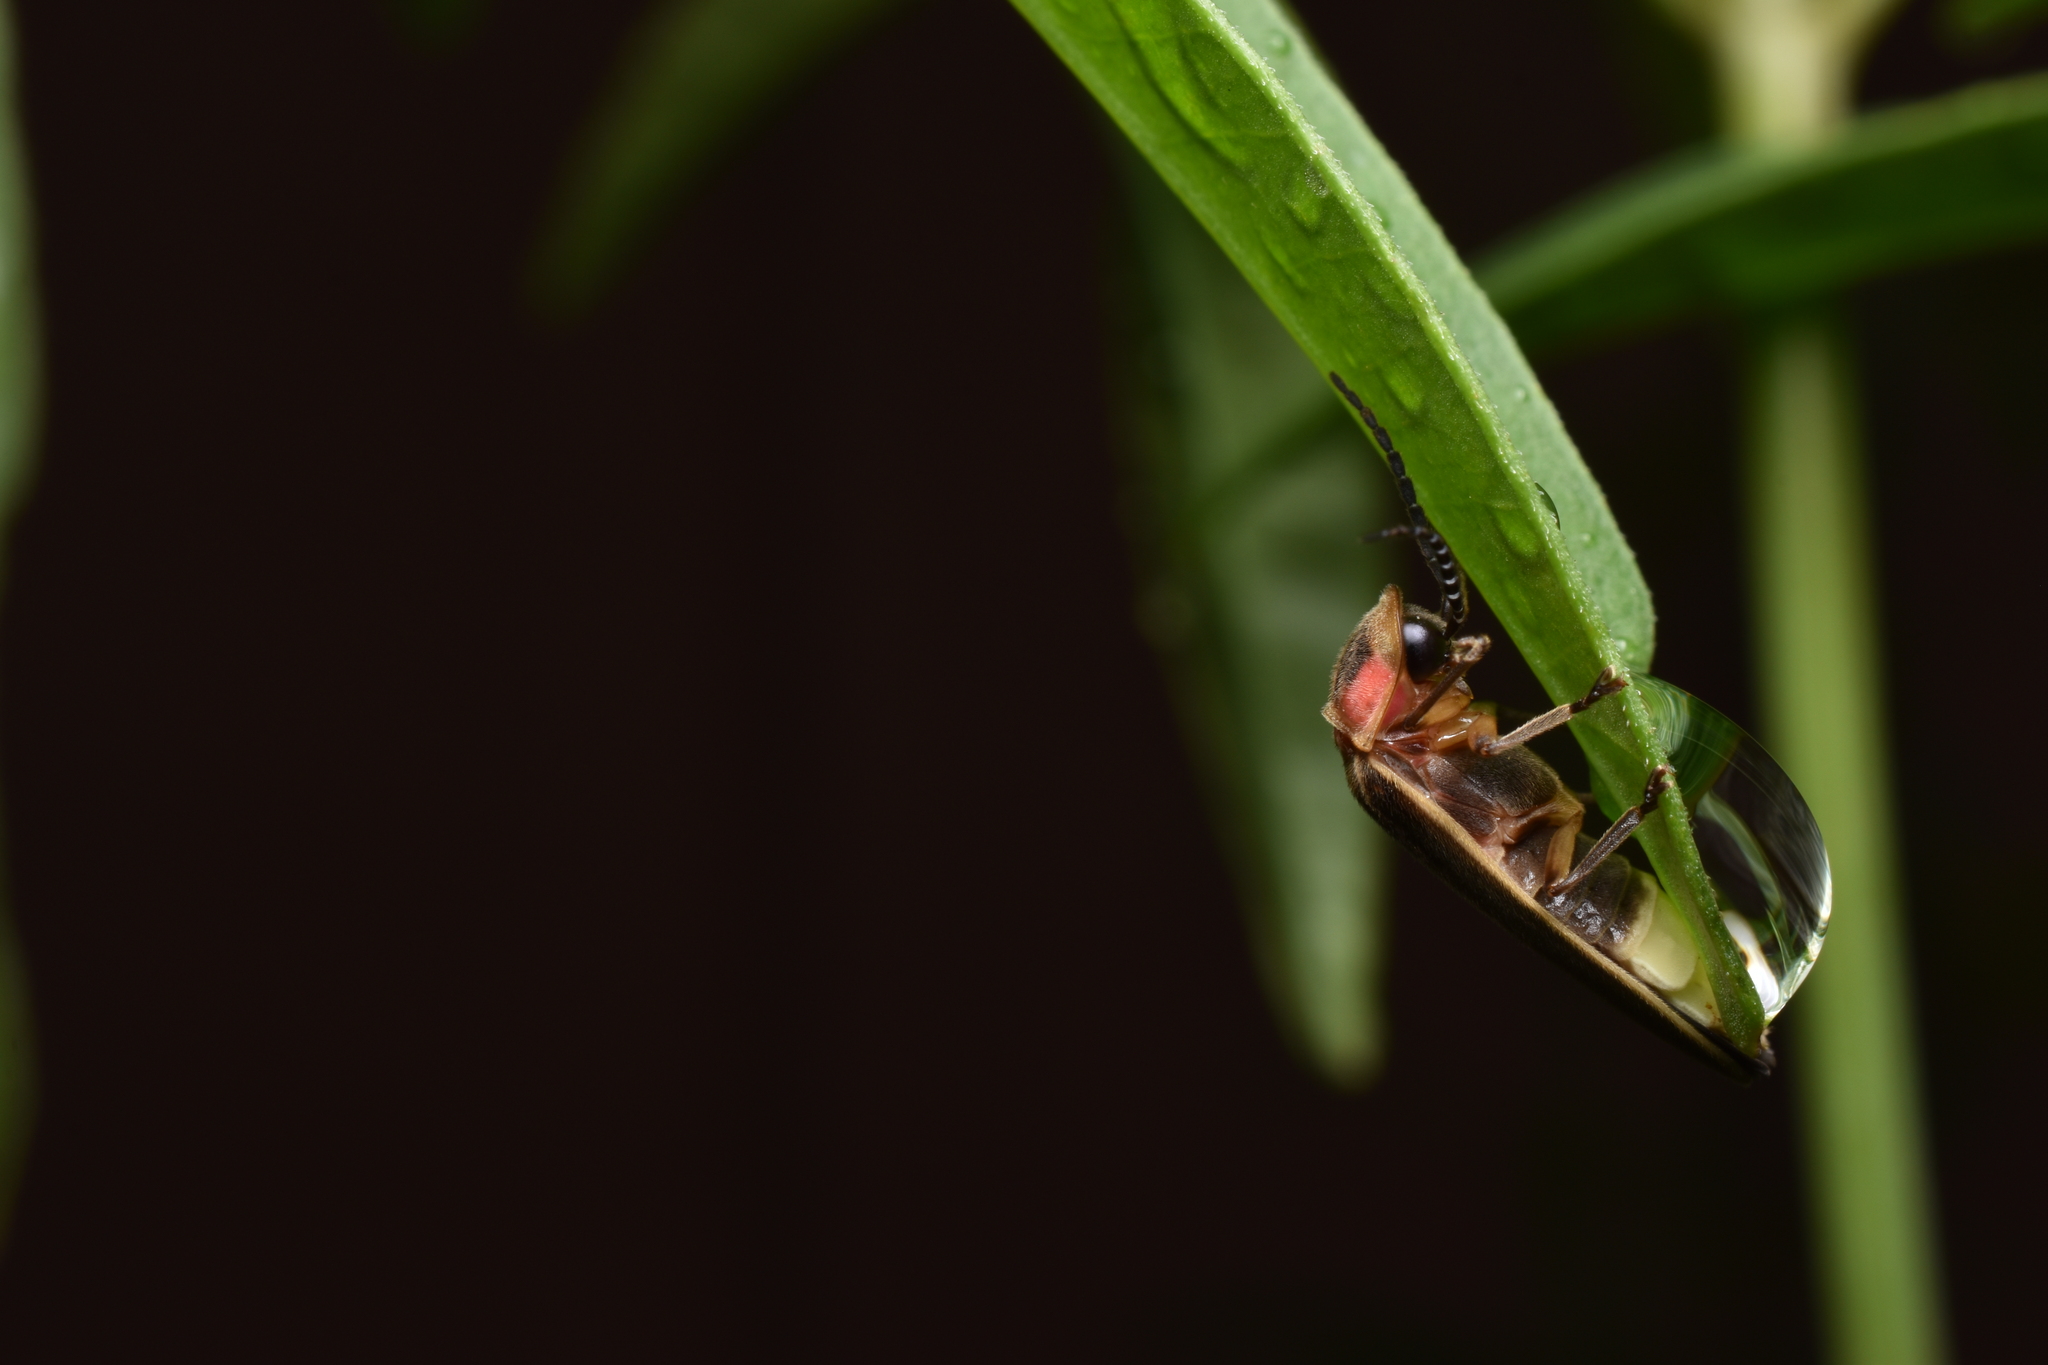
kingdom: Animalia
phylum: Arthropoda
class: Insecta
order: Coleoptera
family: Lampyridae
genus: Photinus
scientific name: Photinus pyralis
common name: Big dipper firefly
